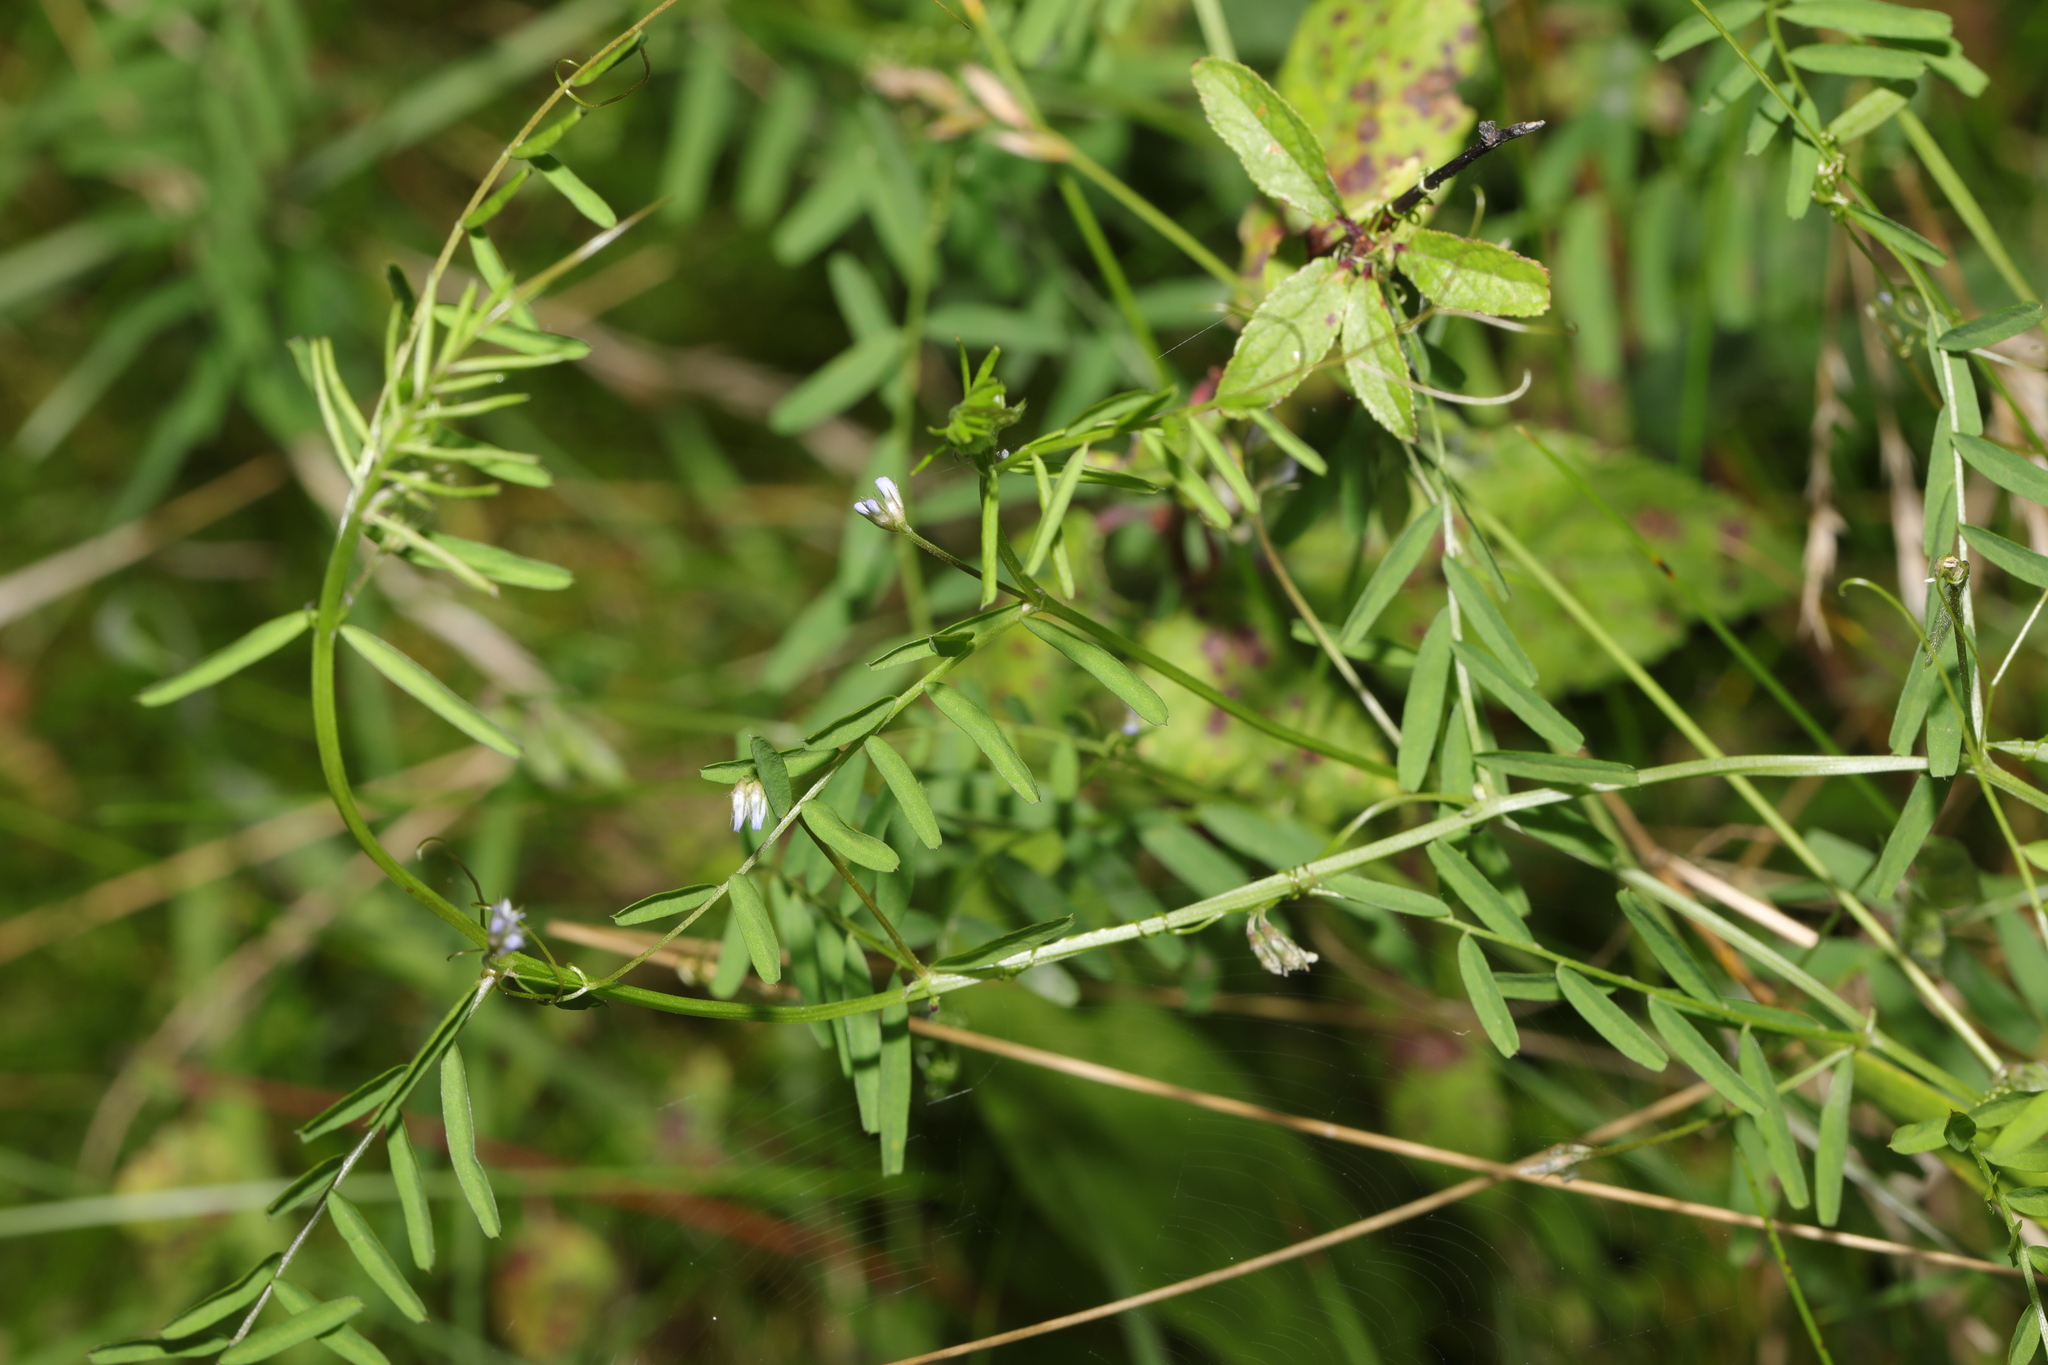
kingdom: Plantae
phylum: Tracheophyta
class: Magnoliopsida
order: Fabales
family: Fabaceae
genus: Vicia
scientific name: Vicia hirsuta
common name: Tiny vetch
